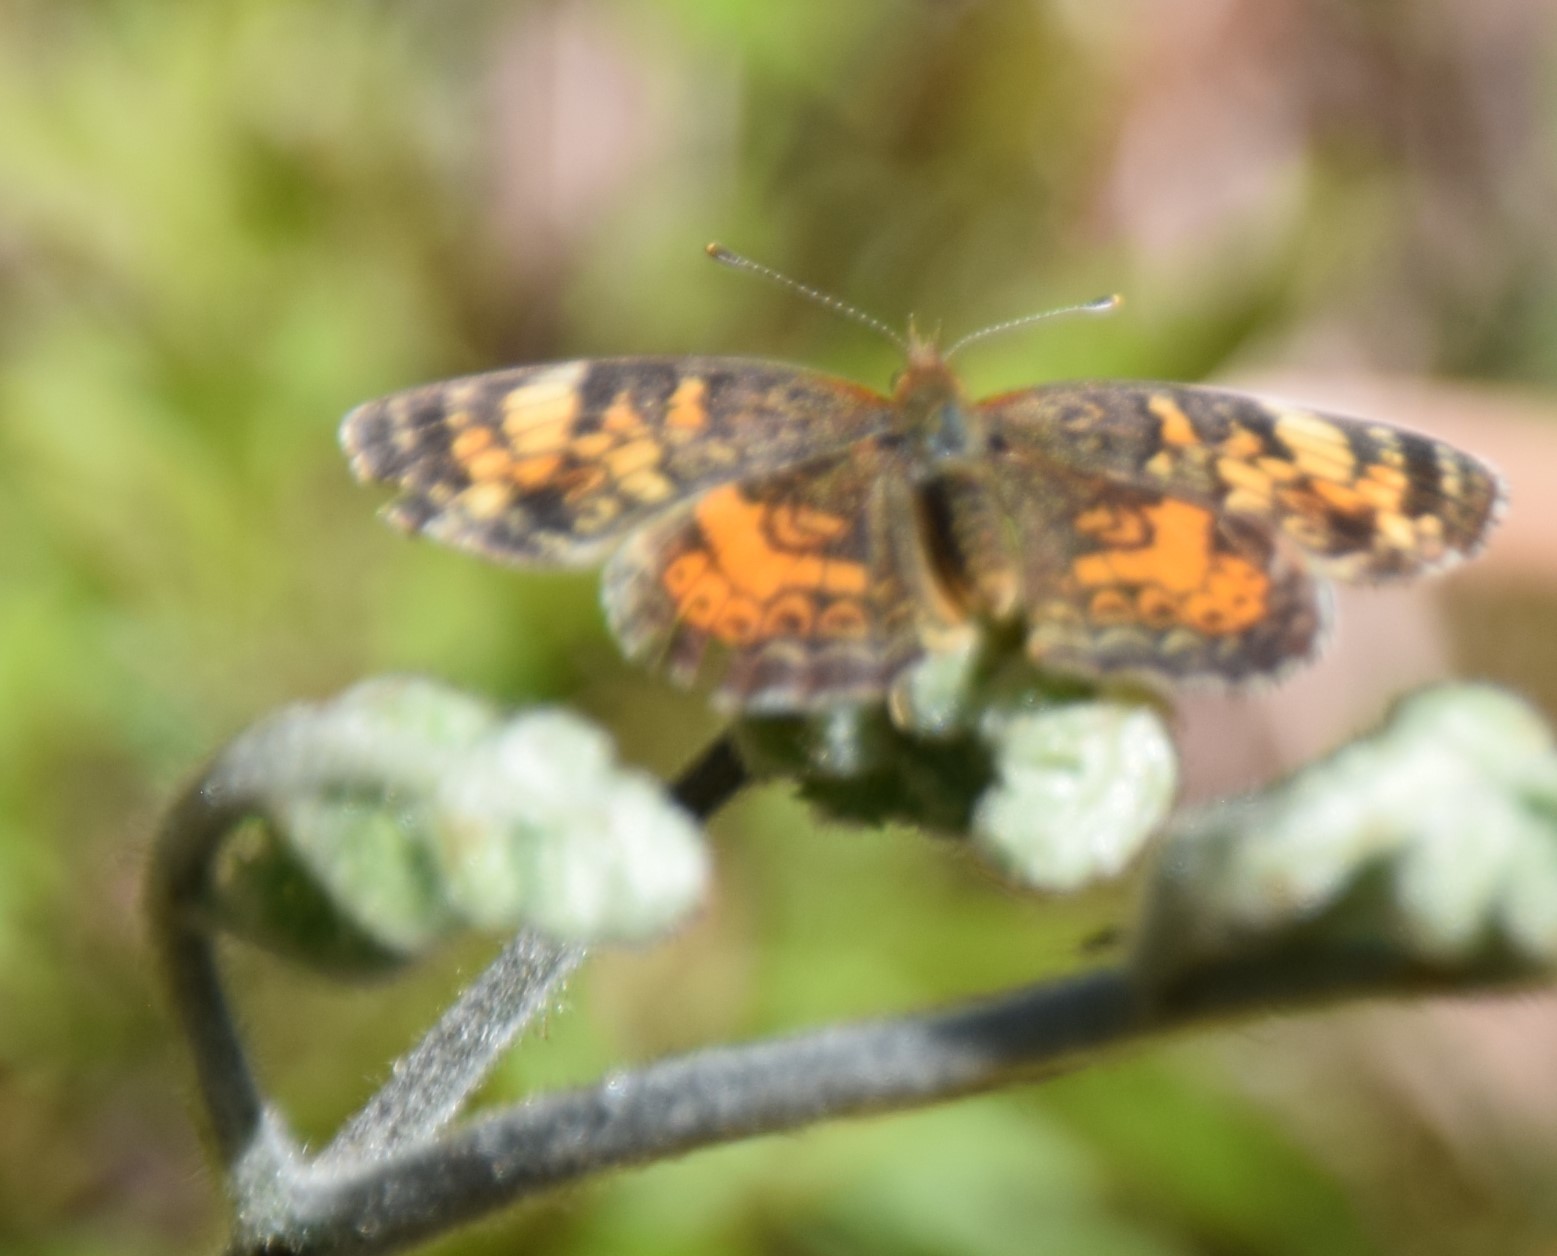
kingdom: Animalia
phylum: Arthropoda
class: Insecta
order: Lepidoptera
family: Nymphalidae
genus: Phyciodes
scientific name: Phyciodes tharos
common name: Pearl crescent
